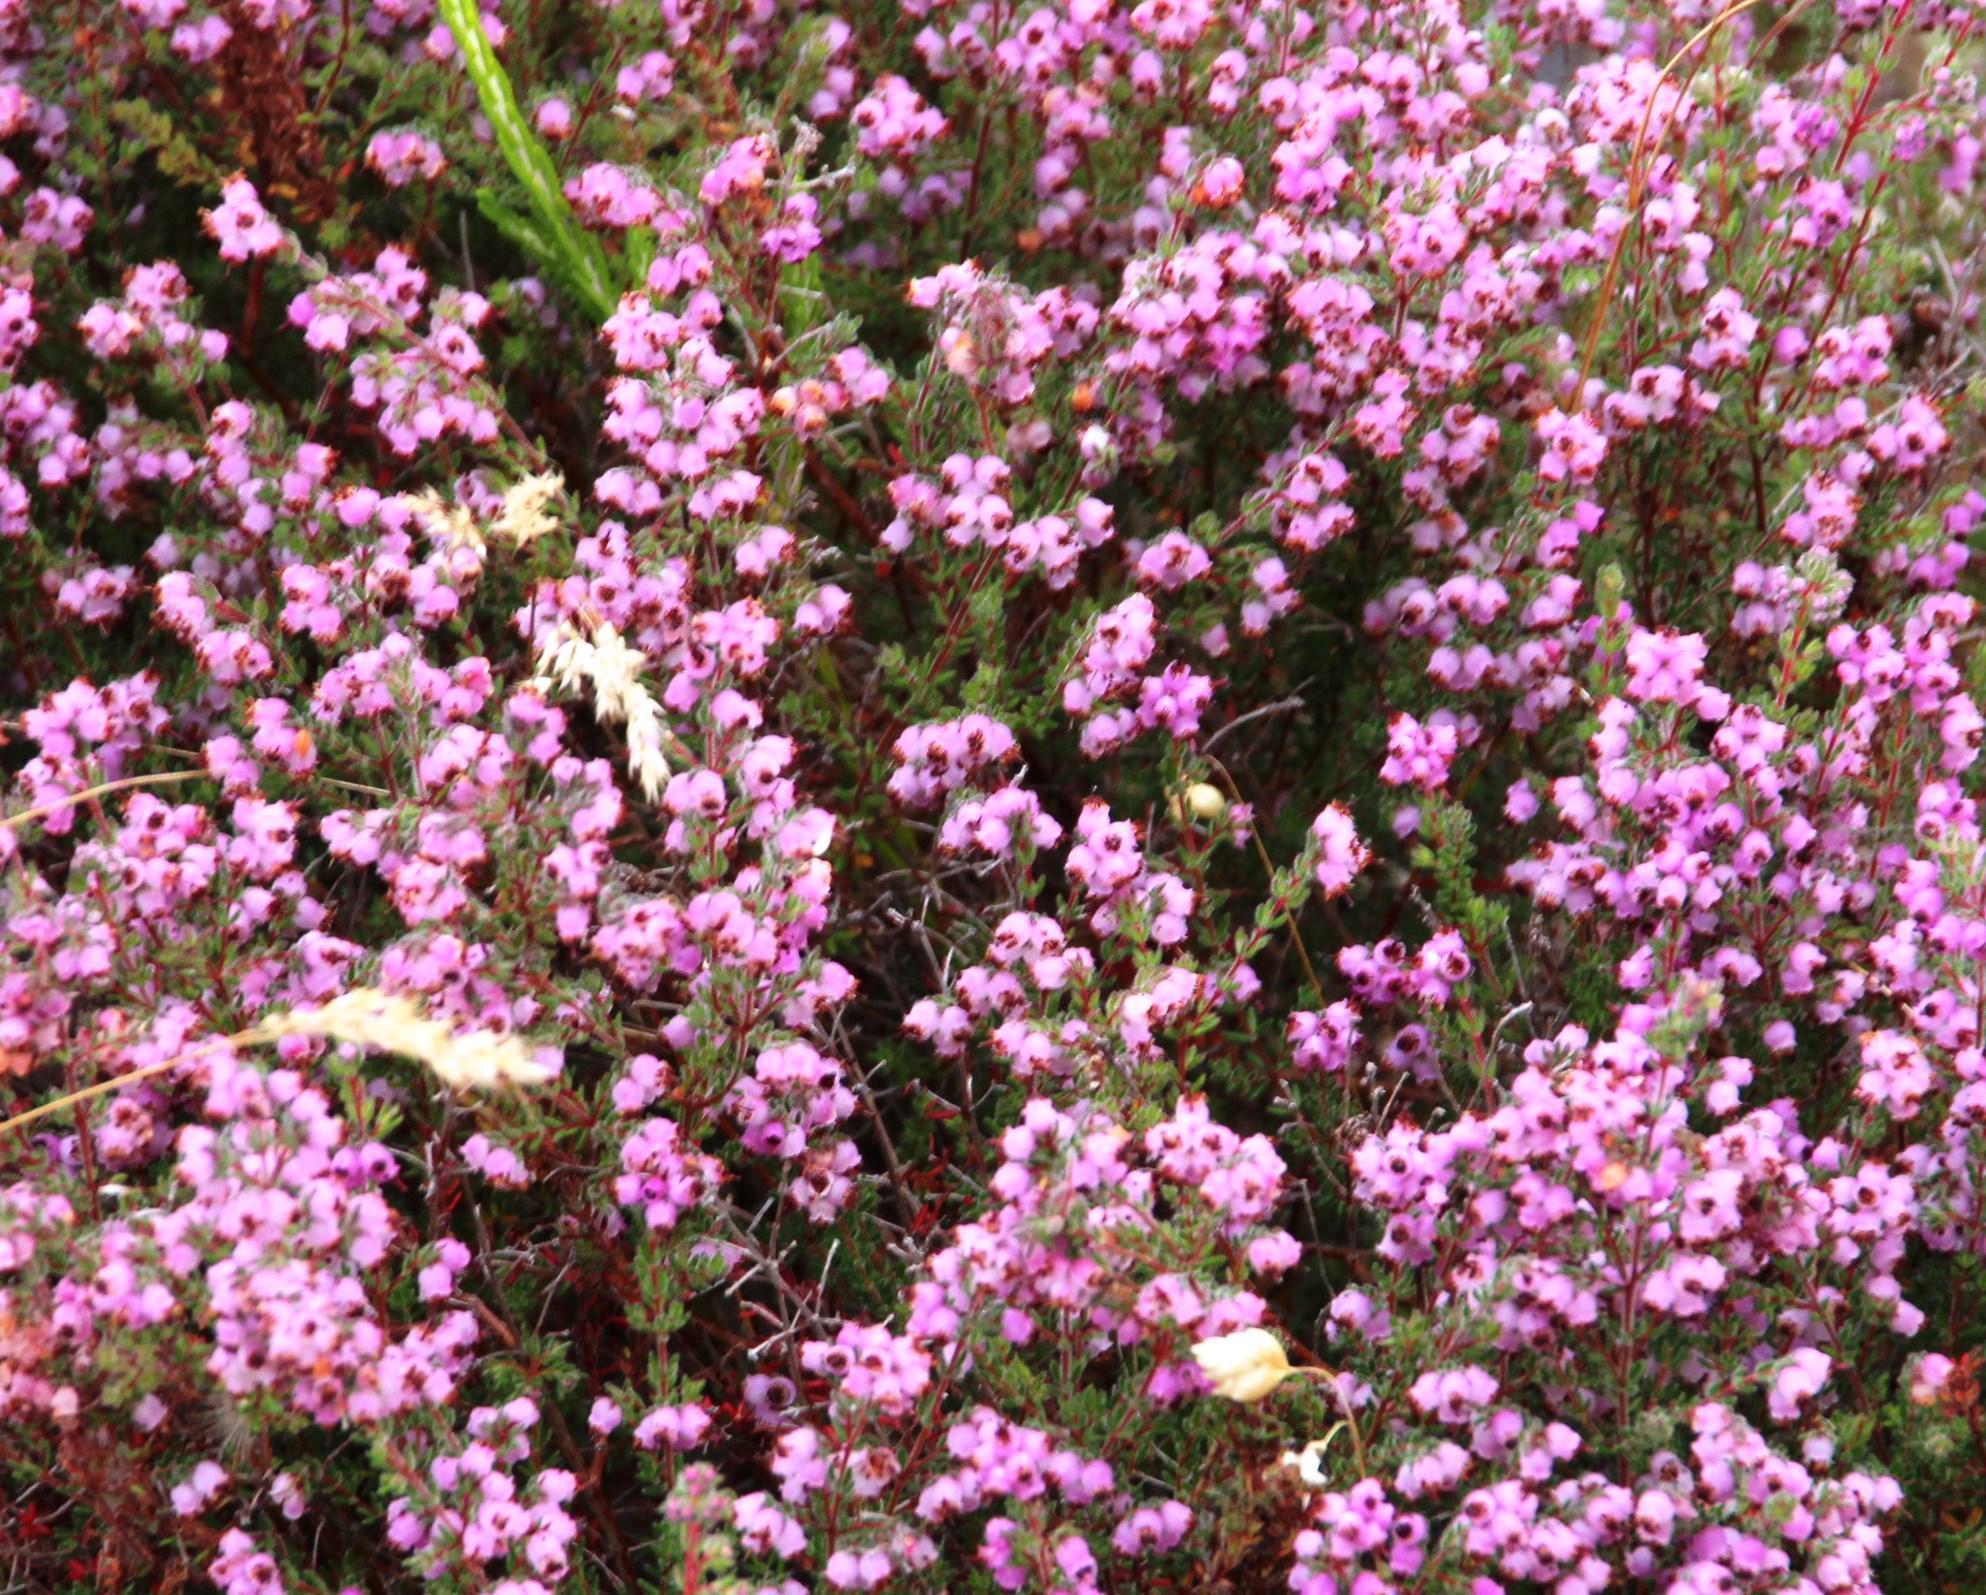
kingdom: Plantae
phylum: Tracheophyta
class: Magnoliopsida
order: Ericales
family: Ericaceae
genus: Erica
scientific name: Erica turgida
